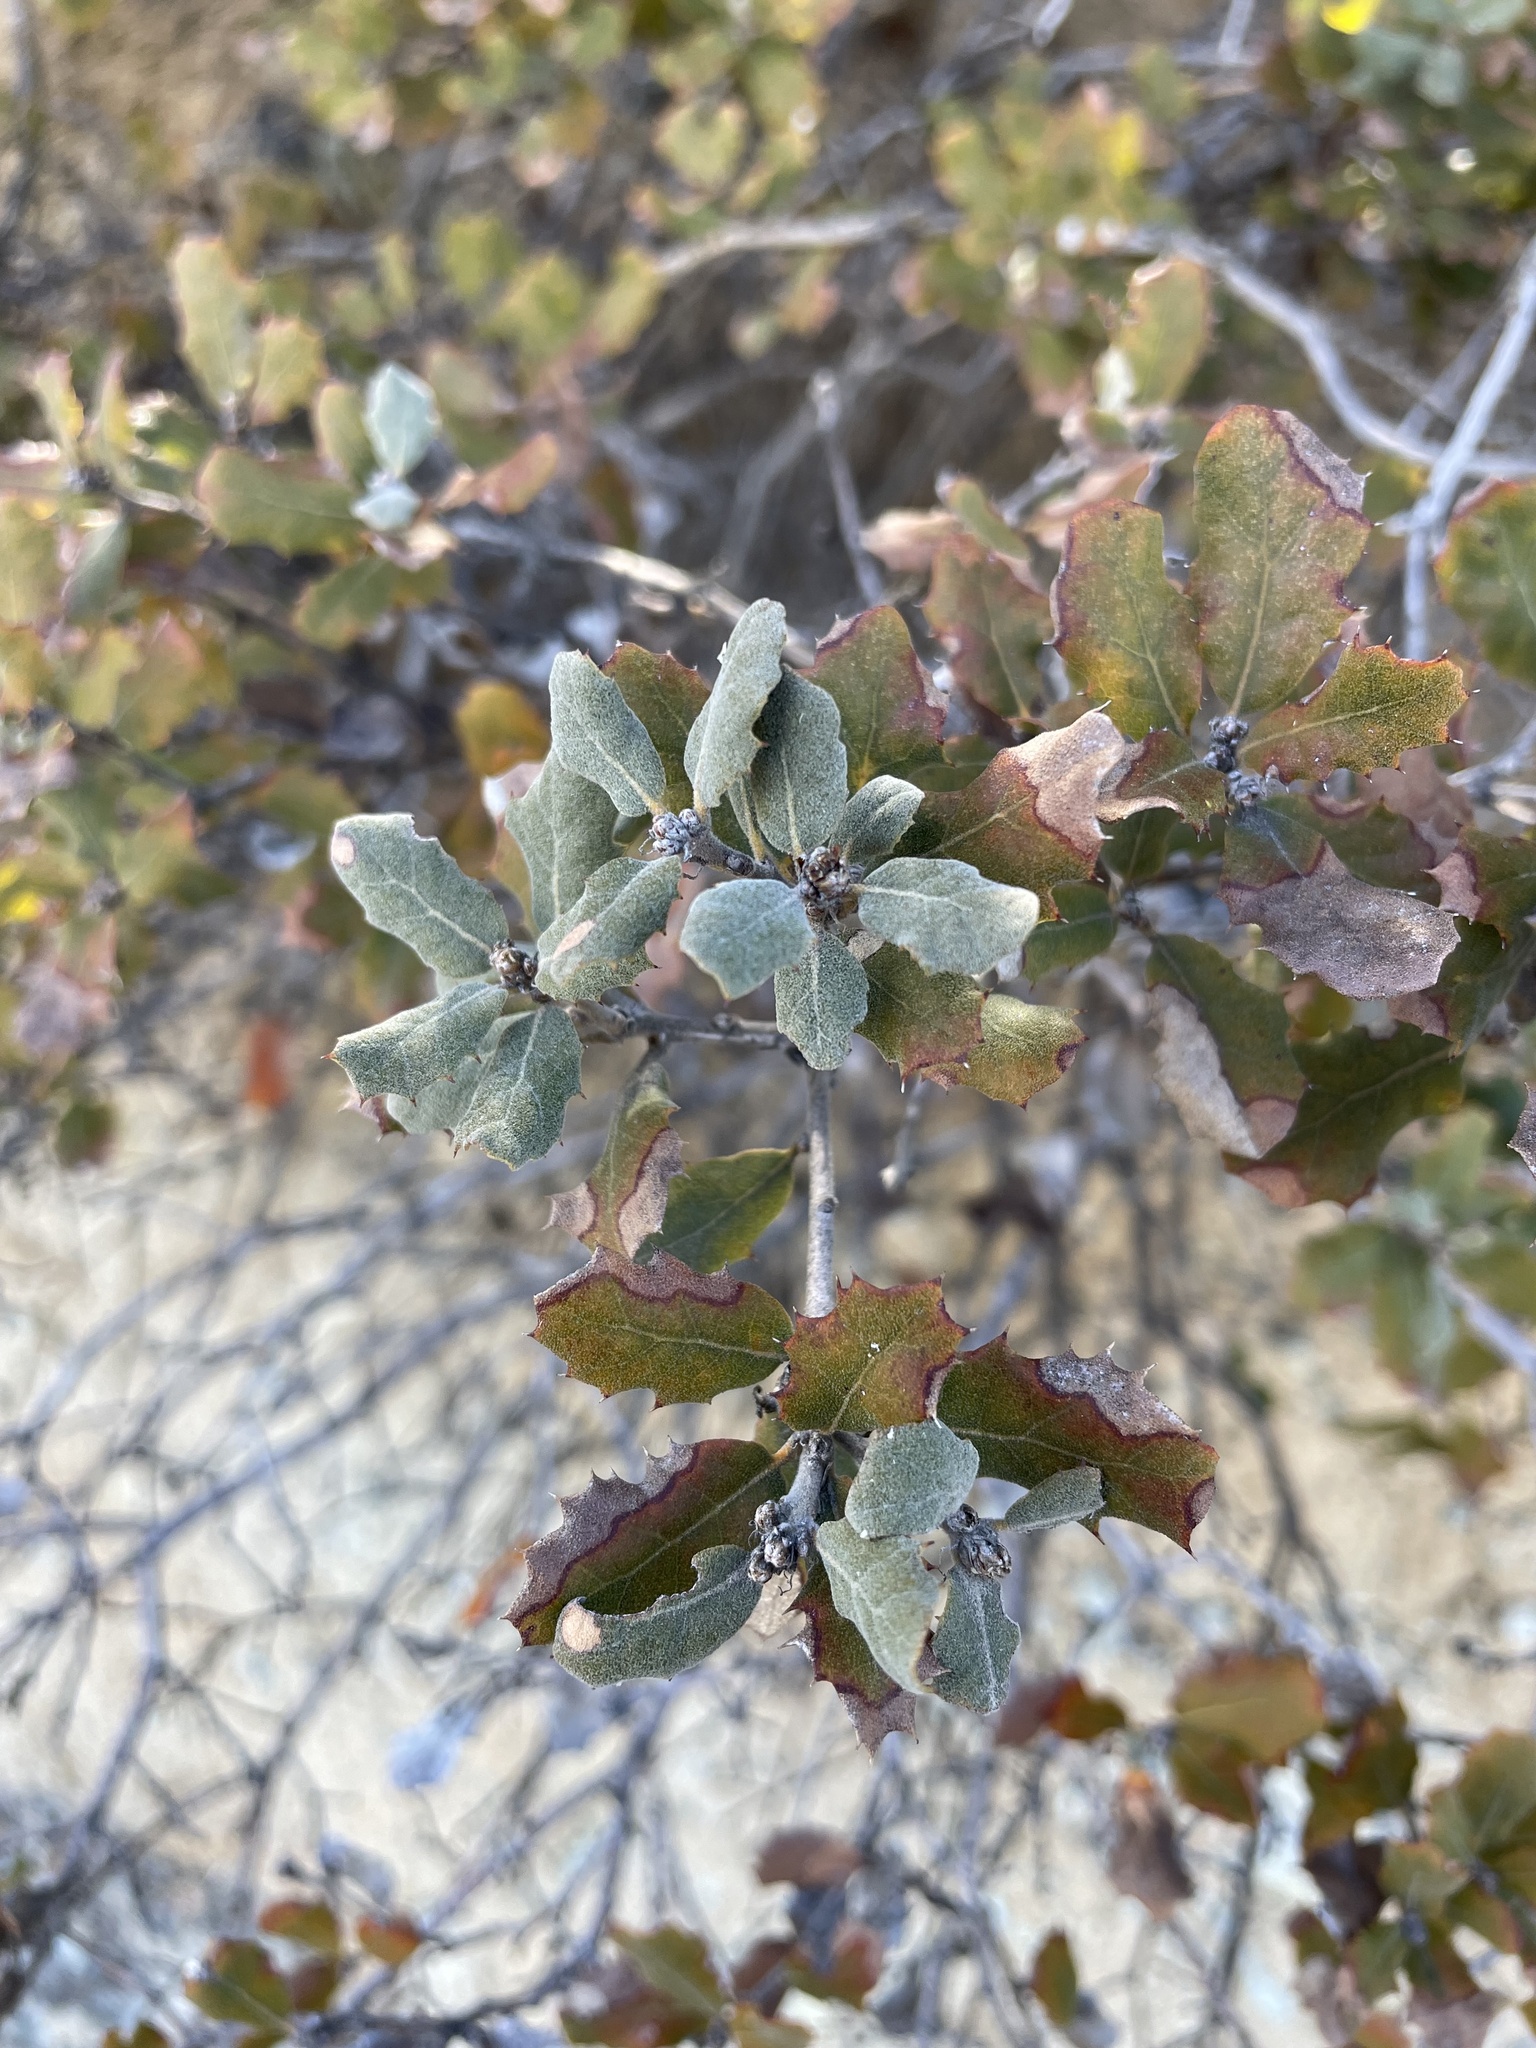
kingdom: Plantae
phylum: Tracheophyta
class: Magnoliopsida
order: Fagales
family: Fagaceae
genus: Quercus
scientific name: Quercus durata
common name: Leather oak
